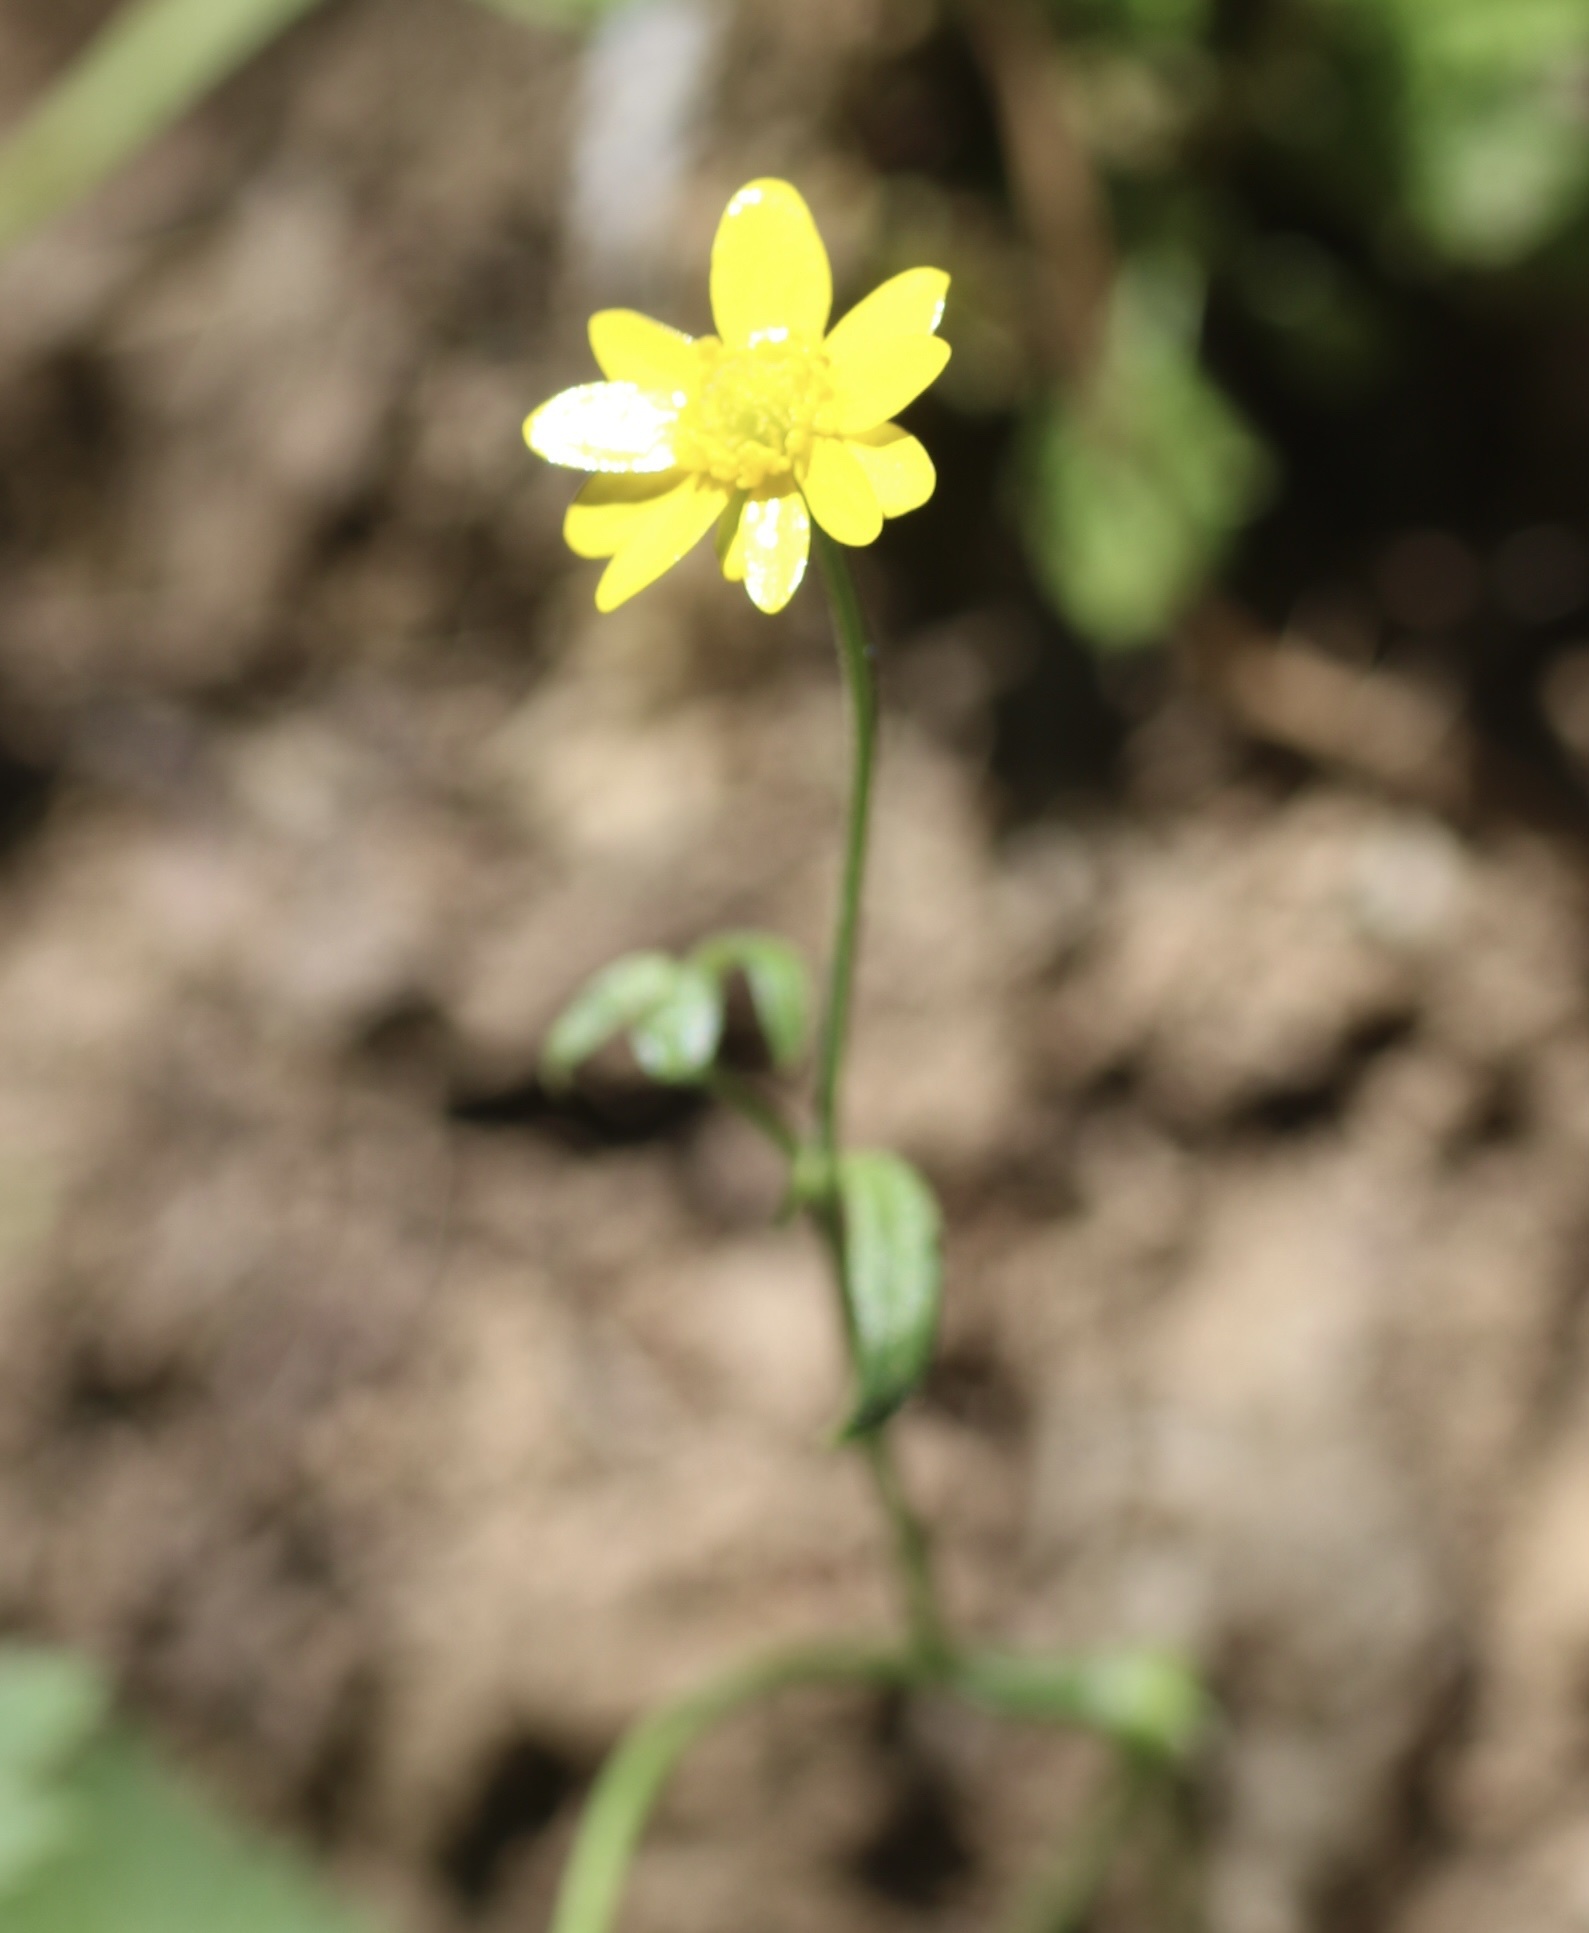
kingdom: Plantae
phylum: Tracheophyta
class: Magnoliopsida
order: Ranunculales
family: Ranunculaceae
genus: Ranunculus
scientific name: Ranunculus californicus
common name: California buttercup
